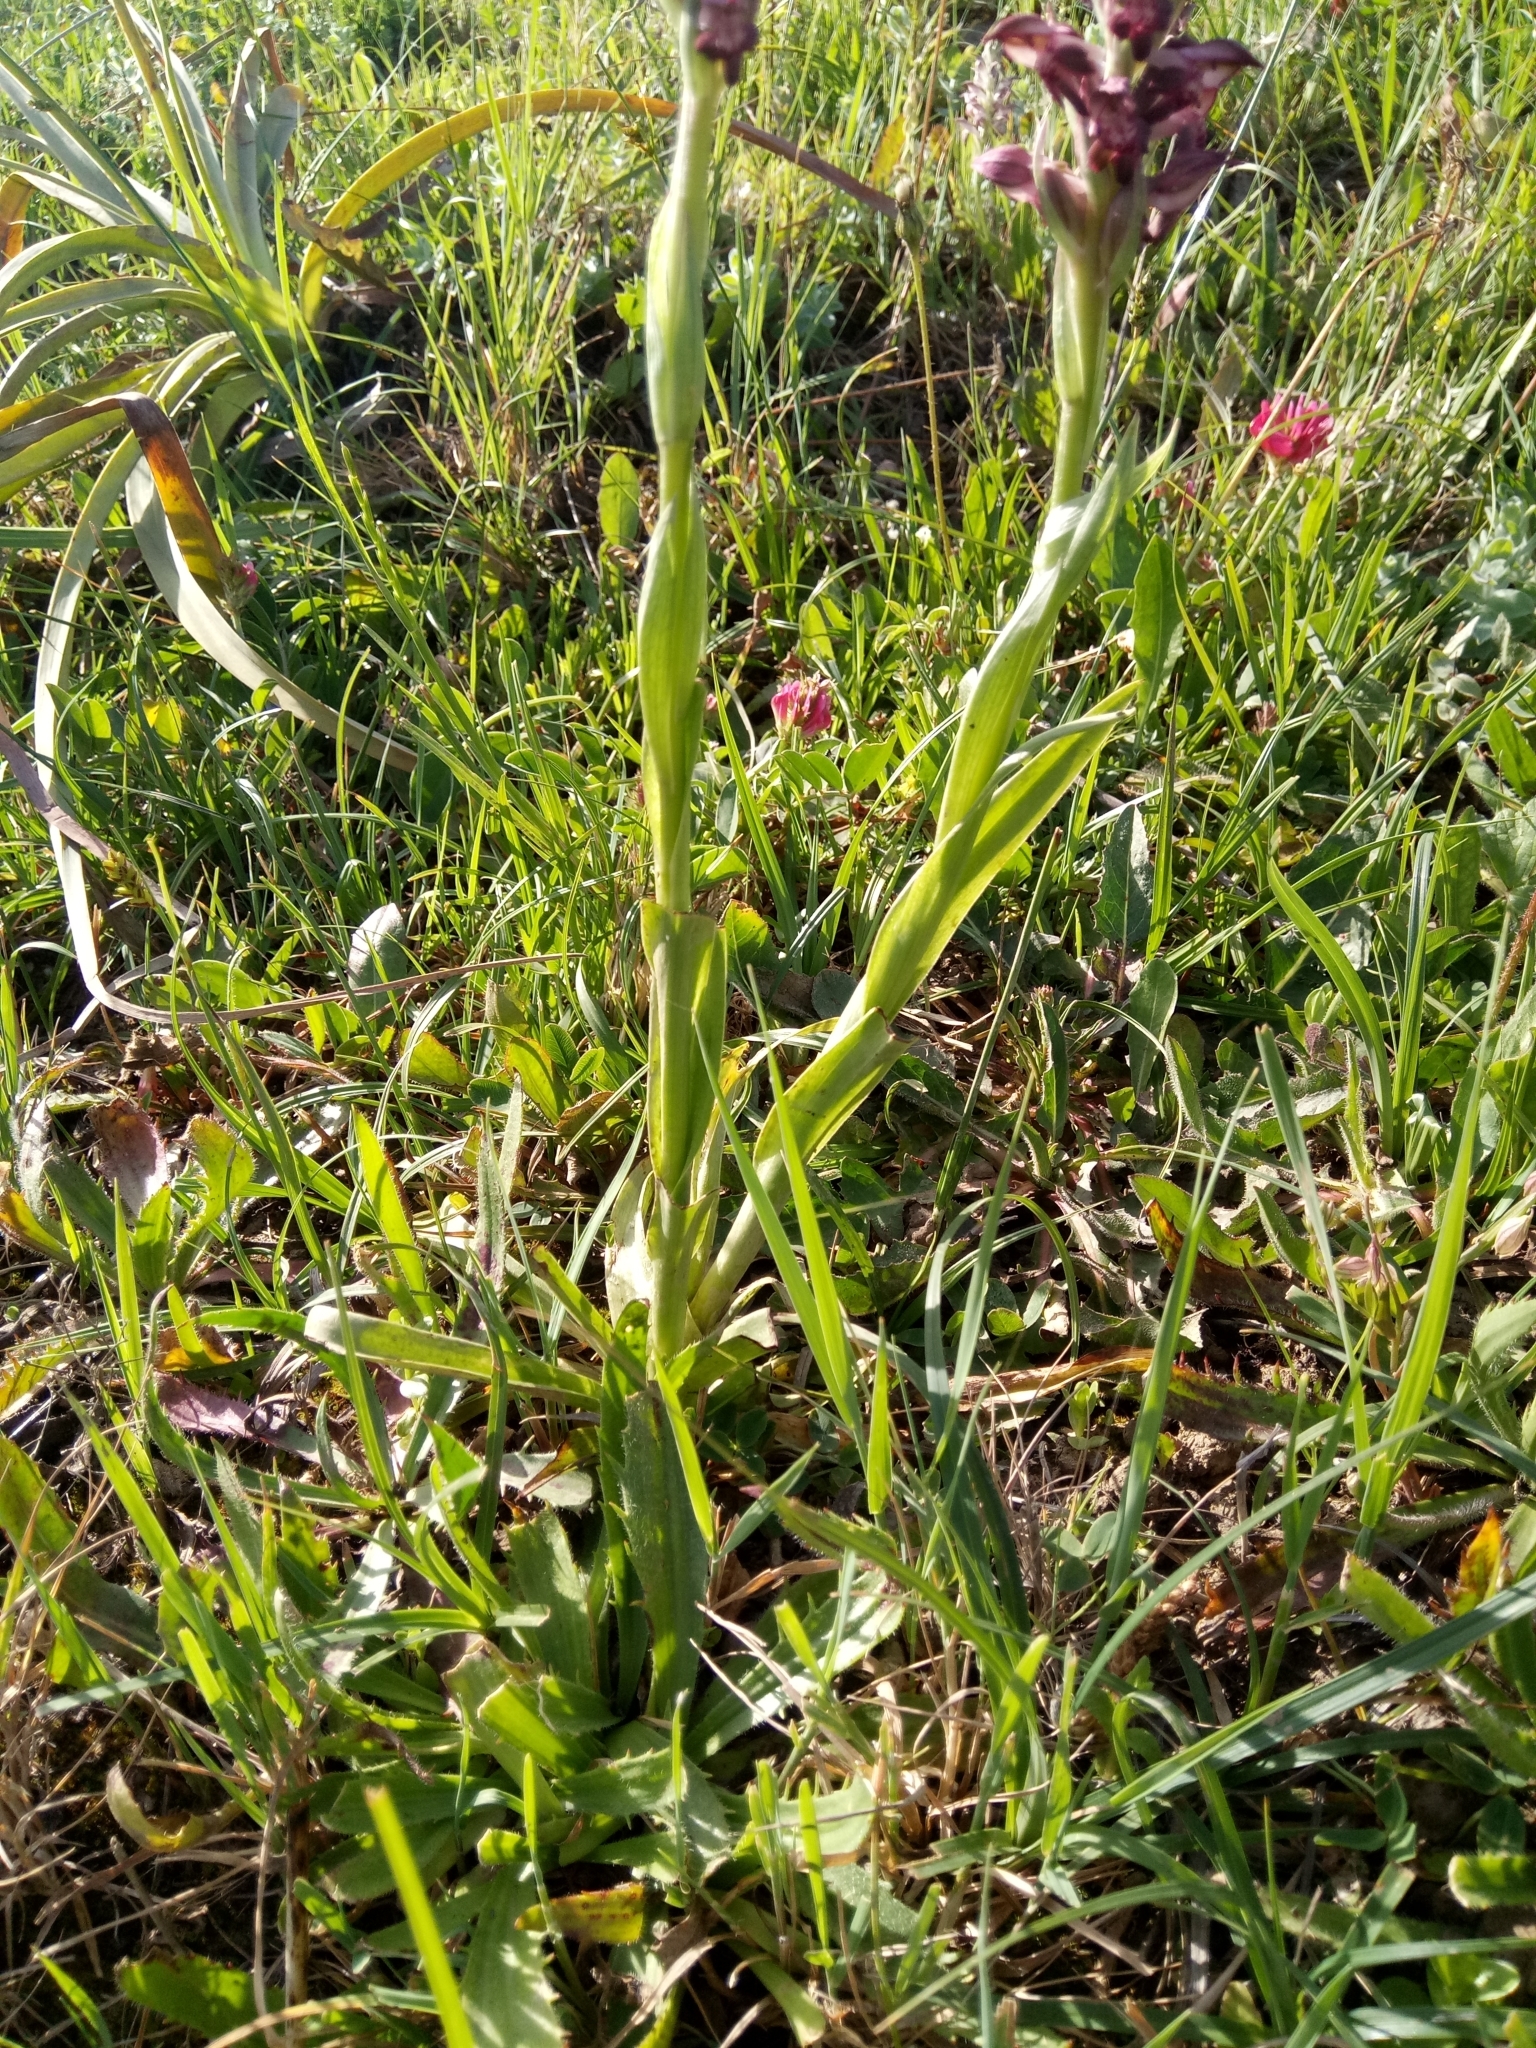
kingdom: Plantae
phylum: Tracheophyta
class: Liliopsida
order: Asparagales
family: Orchidaceae
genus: Anacamptis
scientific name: Anacamptis coriophora
